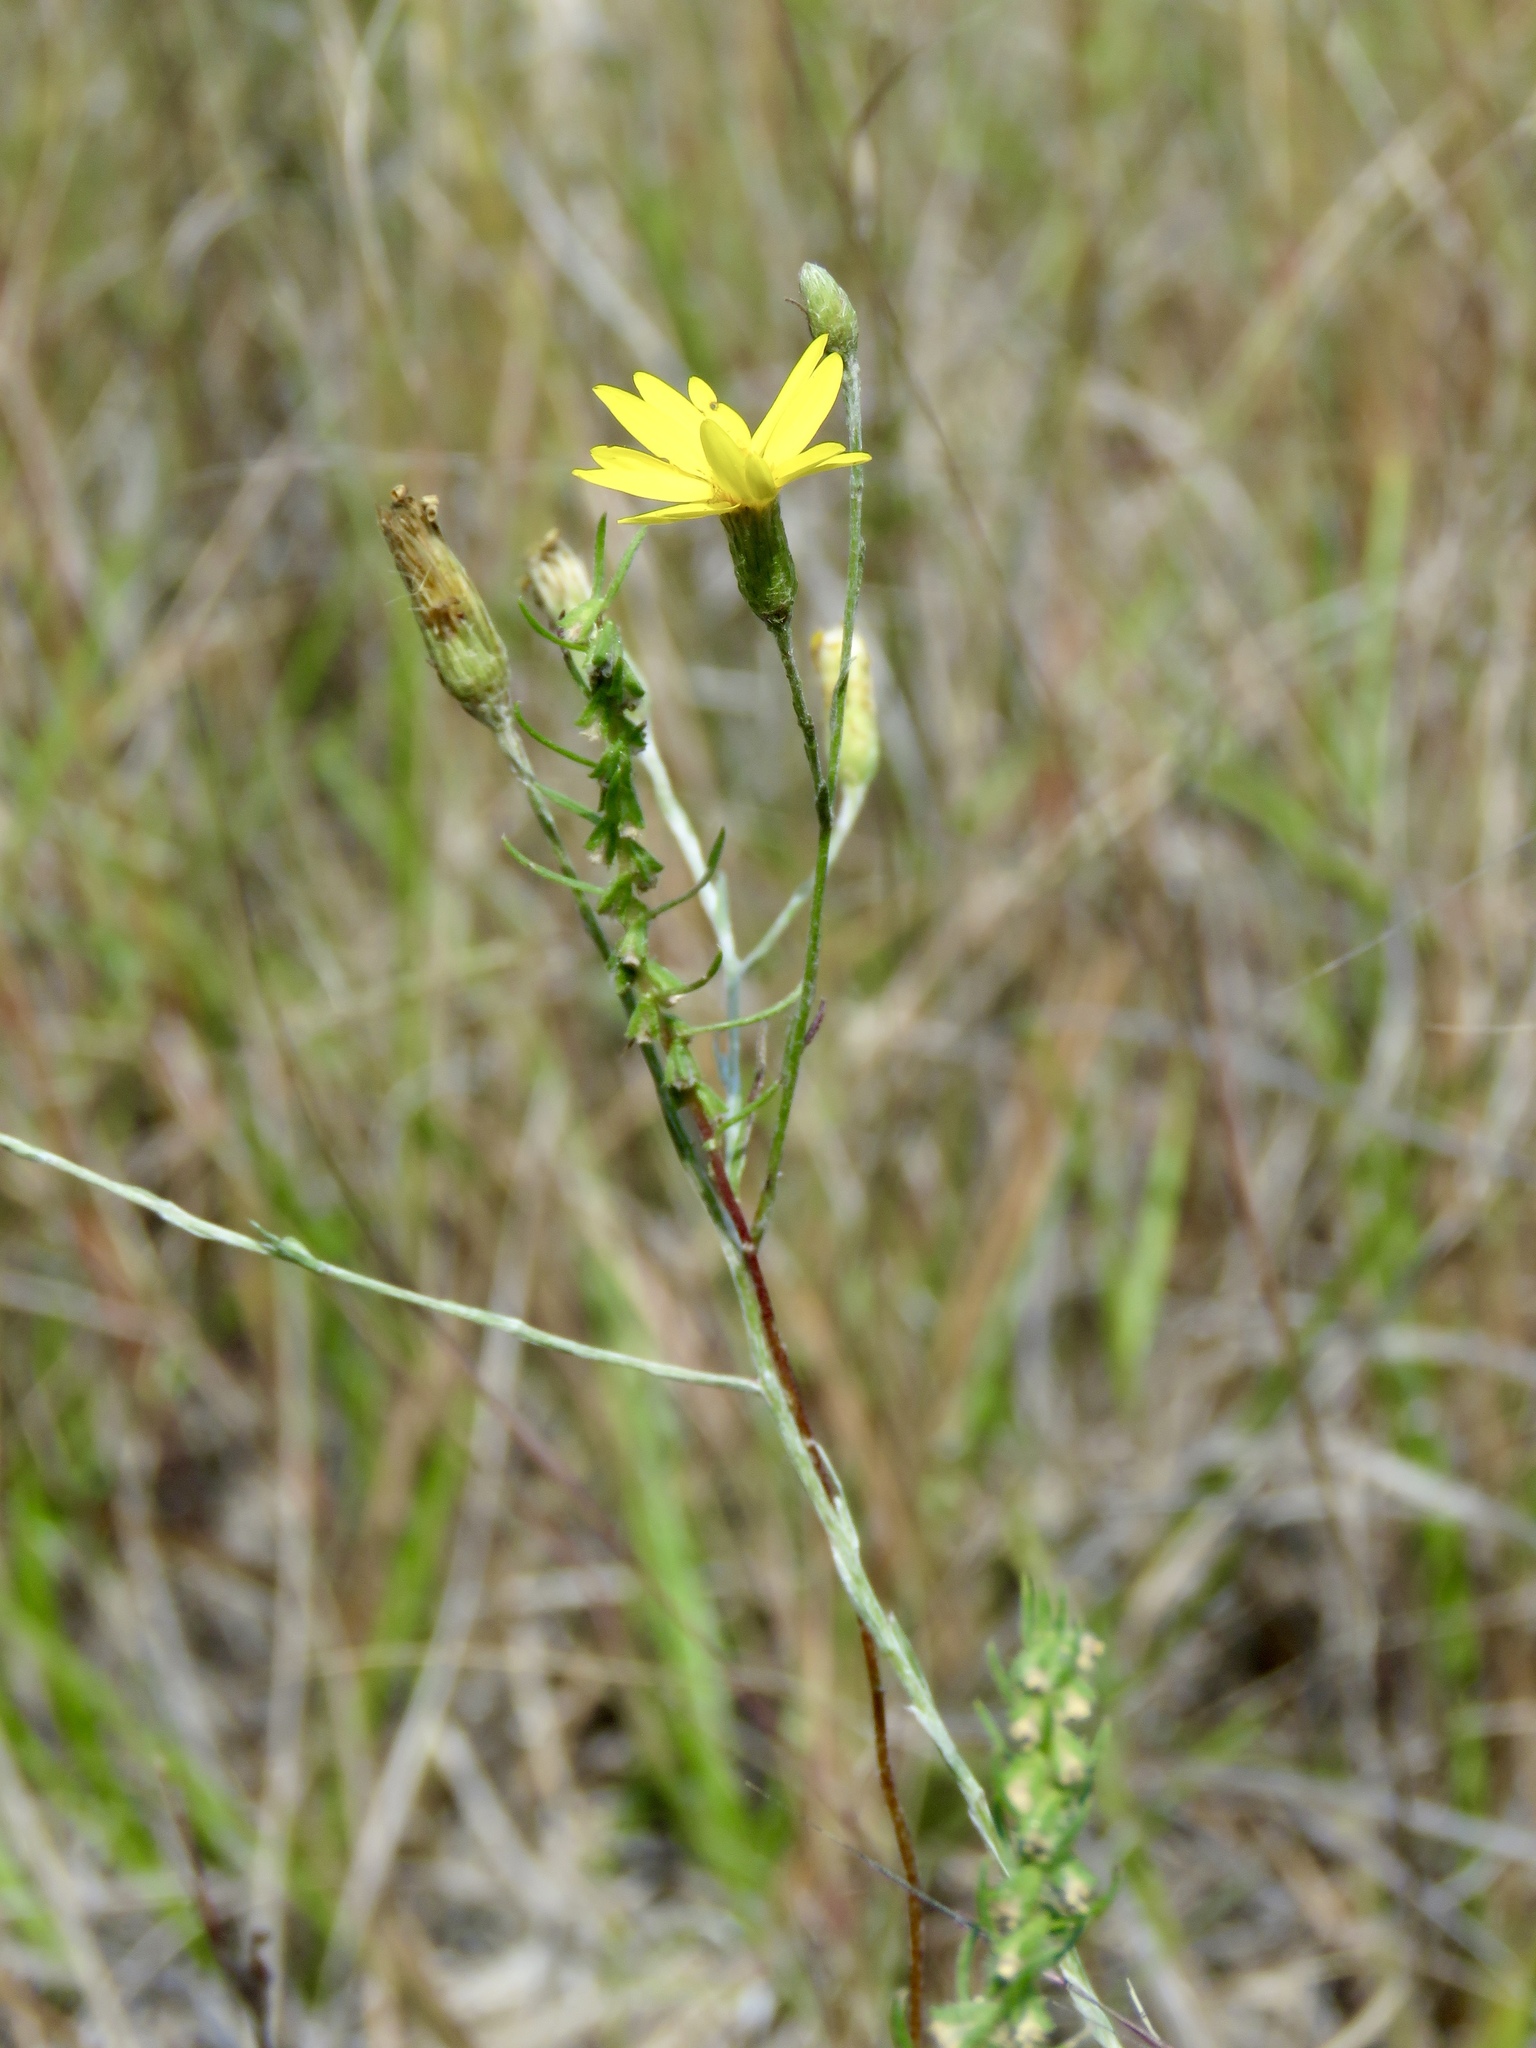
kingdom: Plantae
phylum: Tracheophyta
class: Magnoliopsida
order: Asterales
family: Asteraceae
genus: Pityopsis
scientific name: Pityopsis graminifolia
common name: Grass-leaf golden-aster
